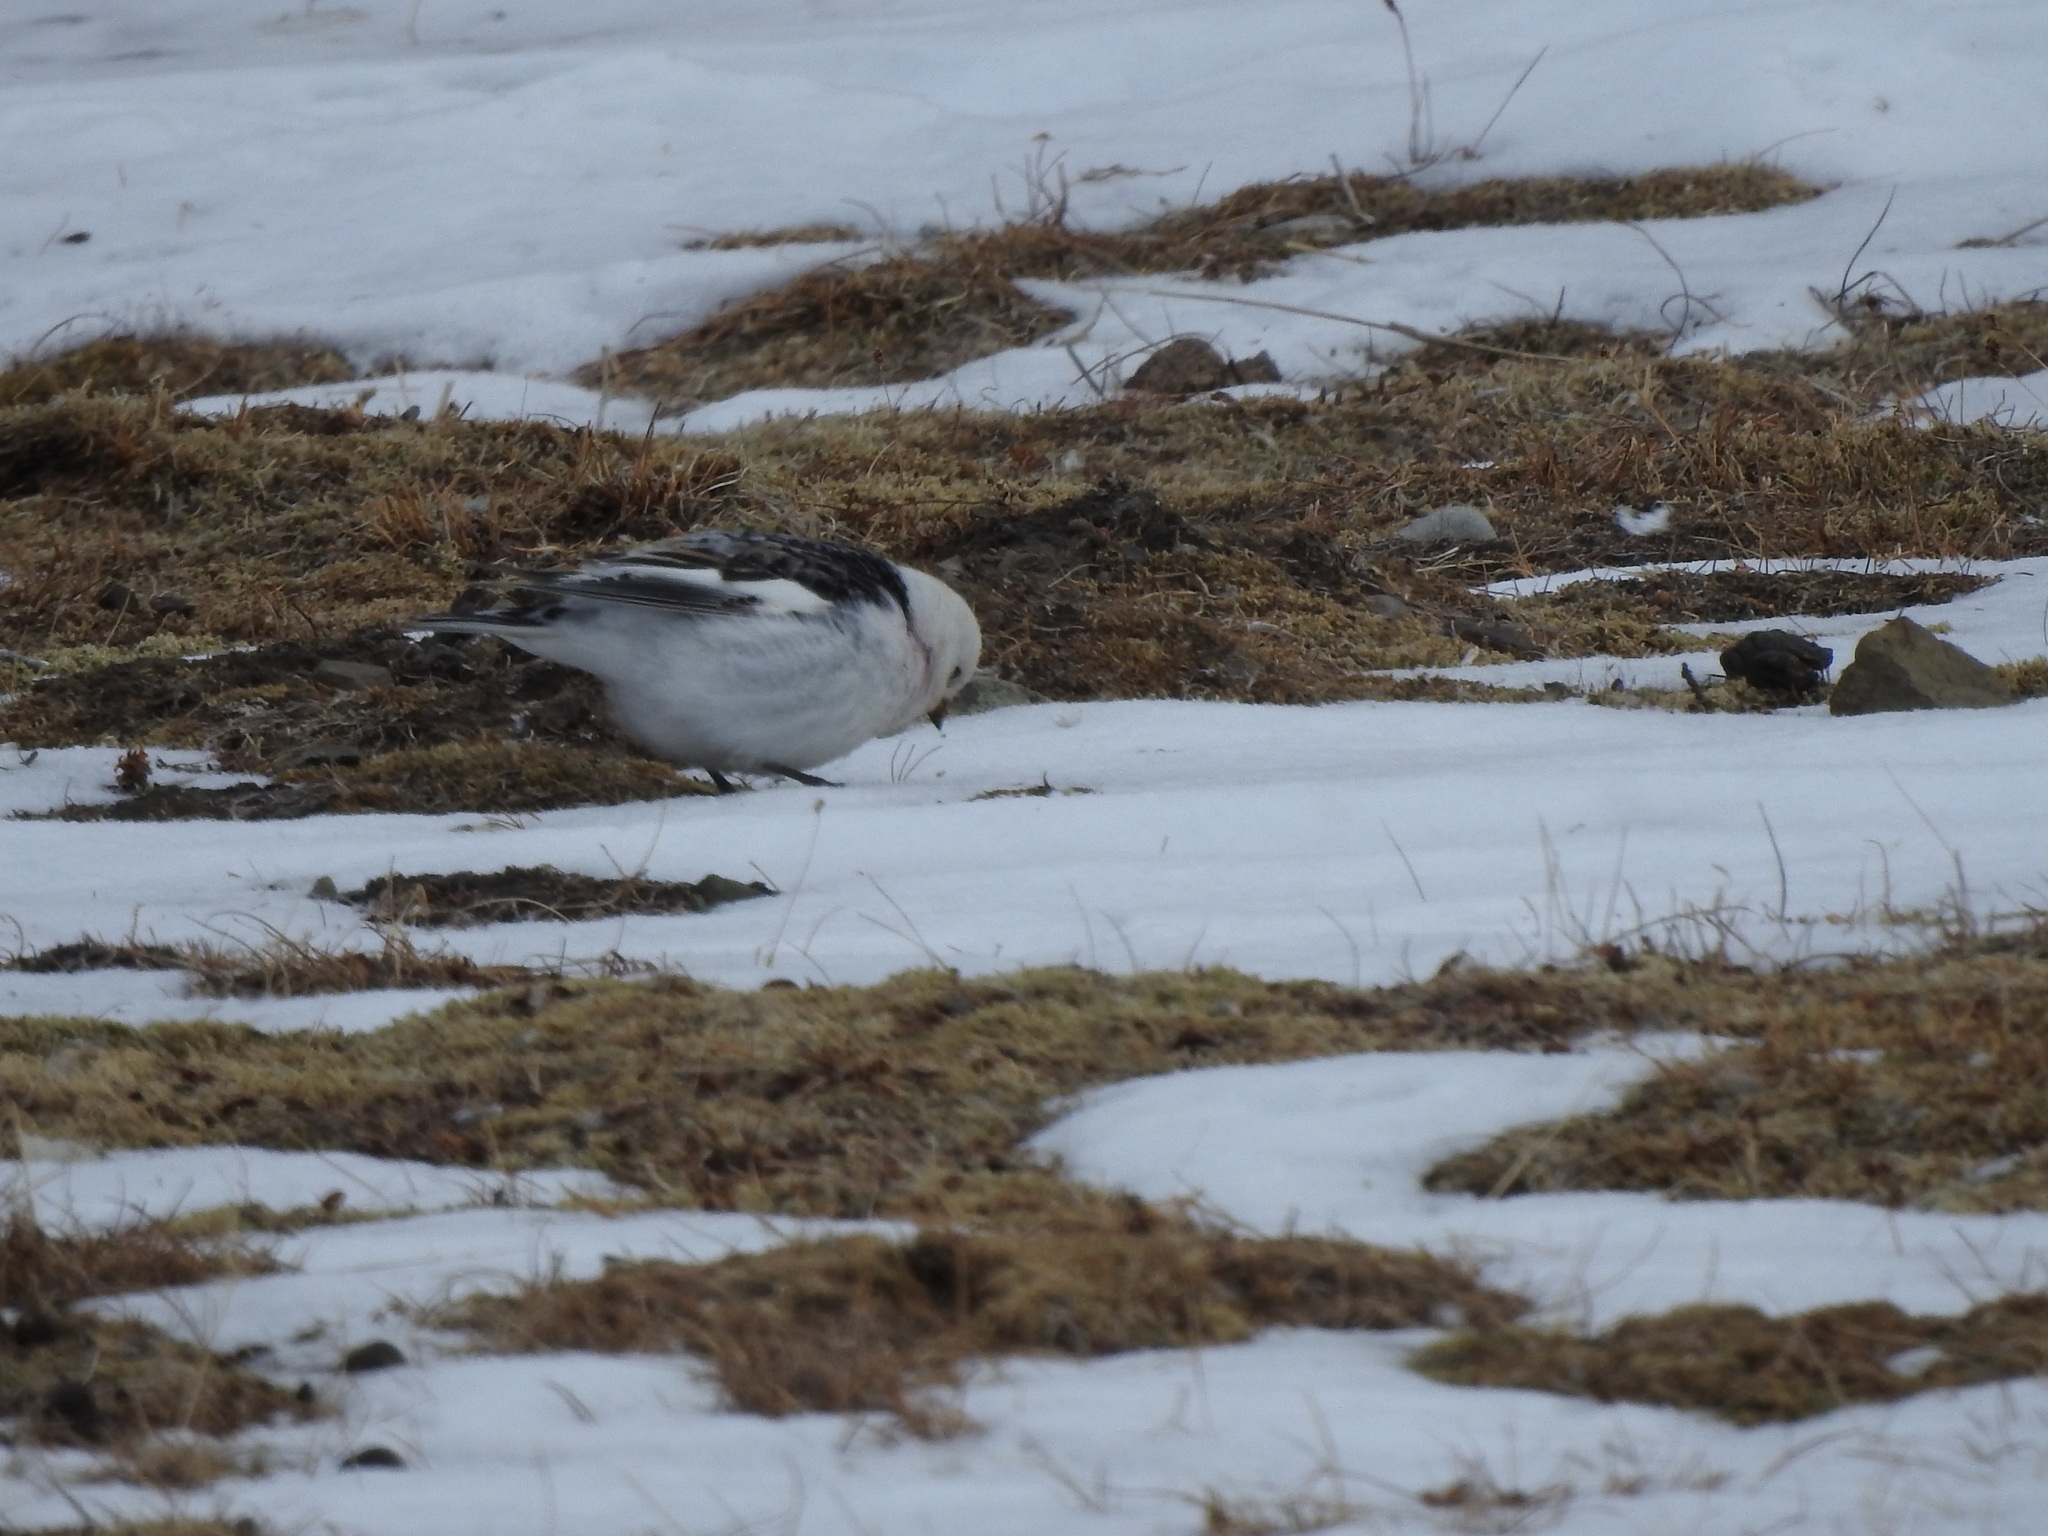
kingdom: Animalia
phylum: Chordata
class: Aves
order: Passeriformes
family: Calcariidae
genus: Plectrophenax
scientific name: Plectrophenax nivalis
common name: Snow bunting
